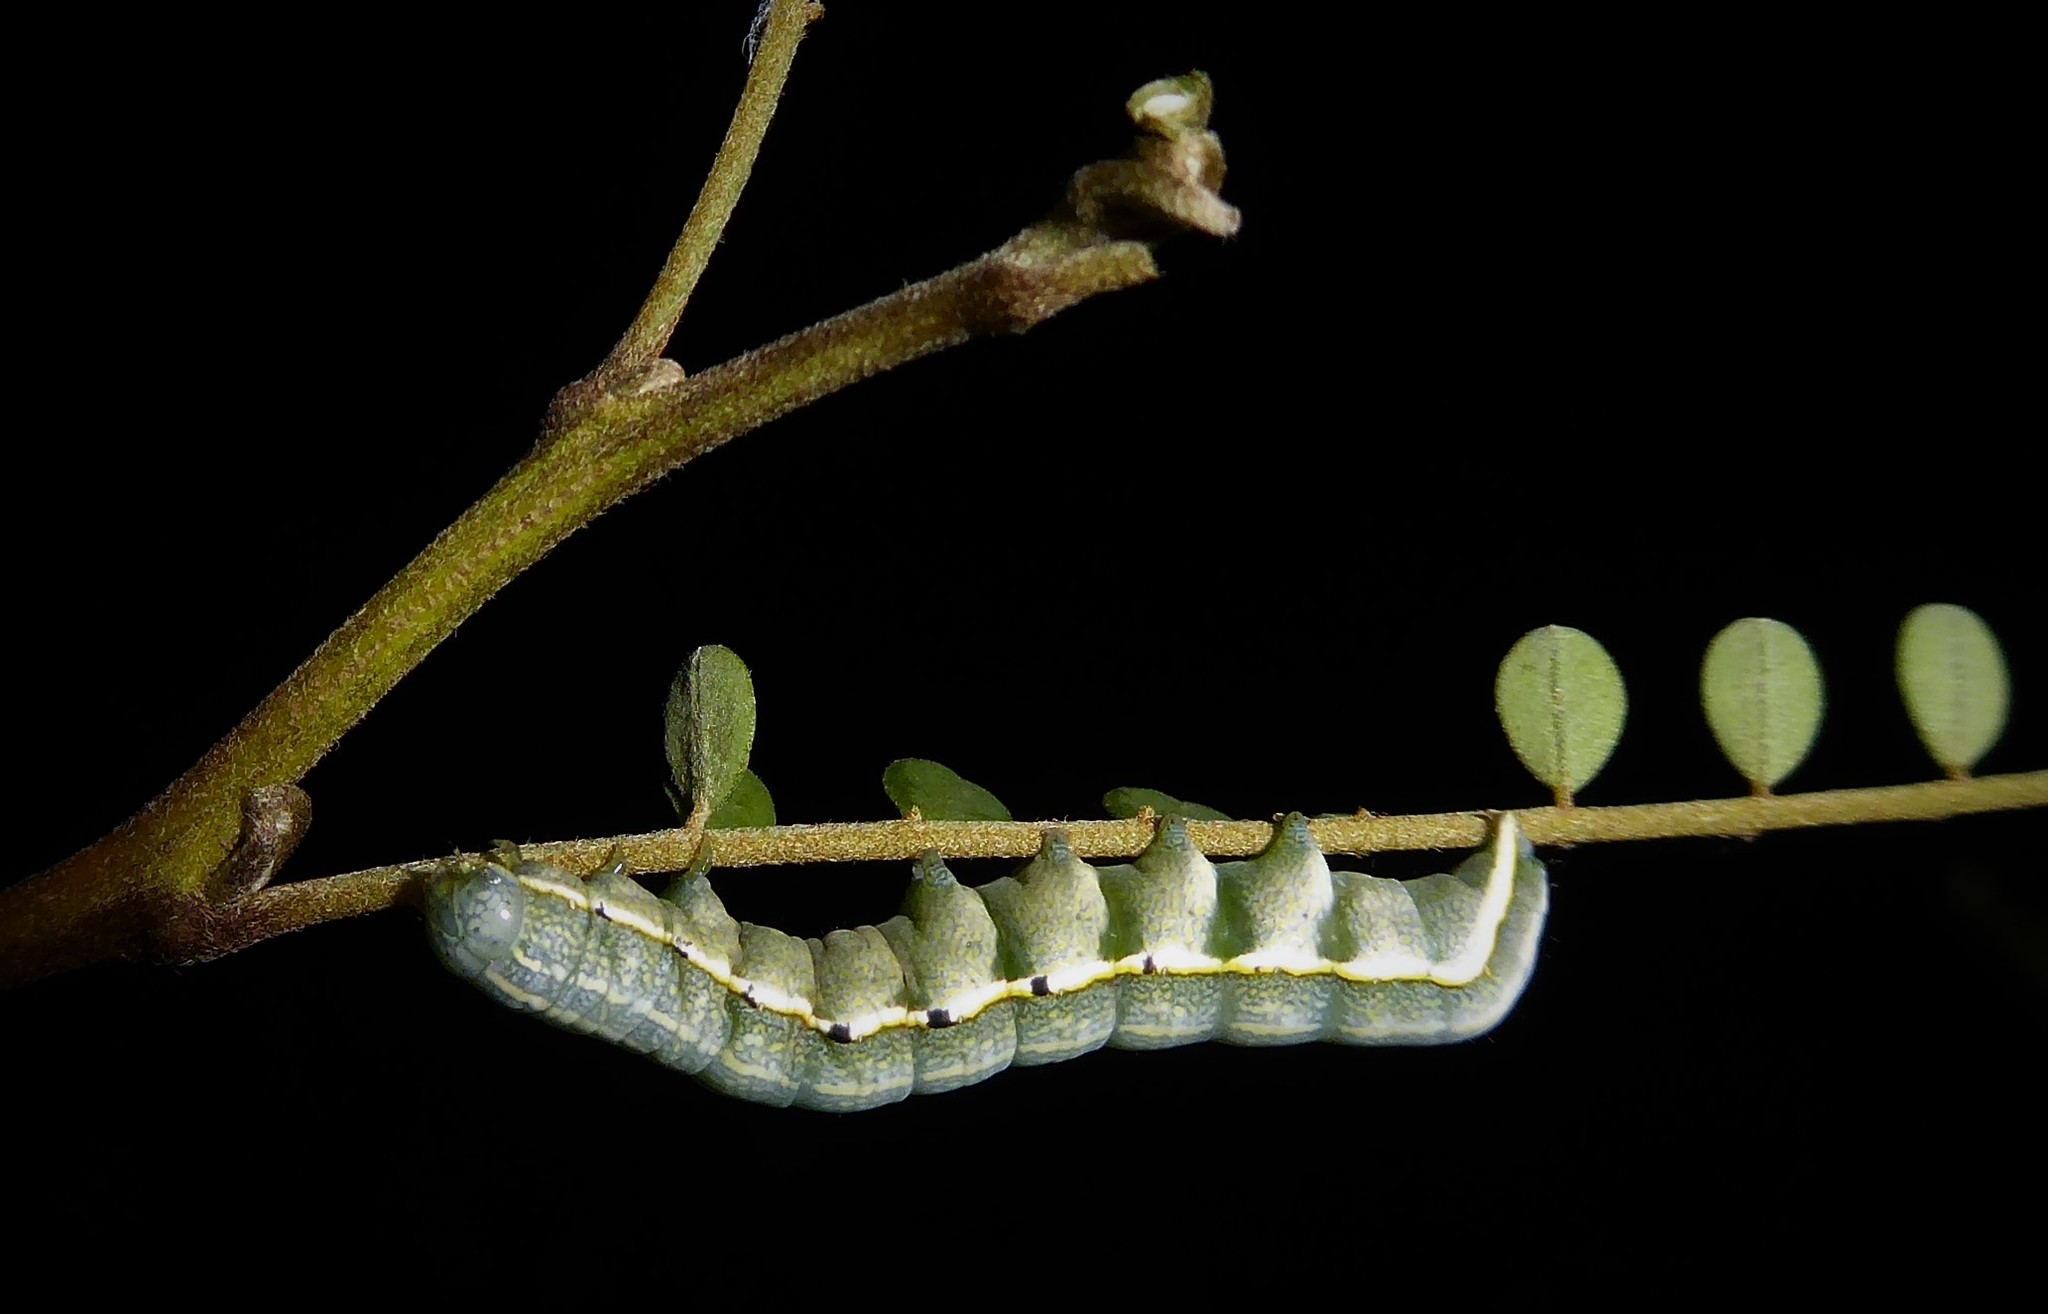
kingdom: Animalia
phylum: Arthropoda
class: Insecta
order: Lepidoptera
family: Noctuidae
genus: Meterana
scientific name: Meterana decorata
